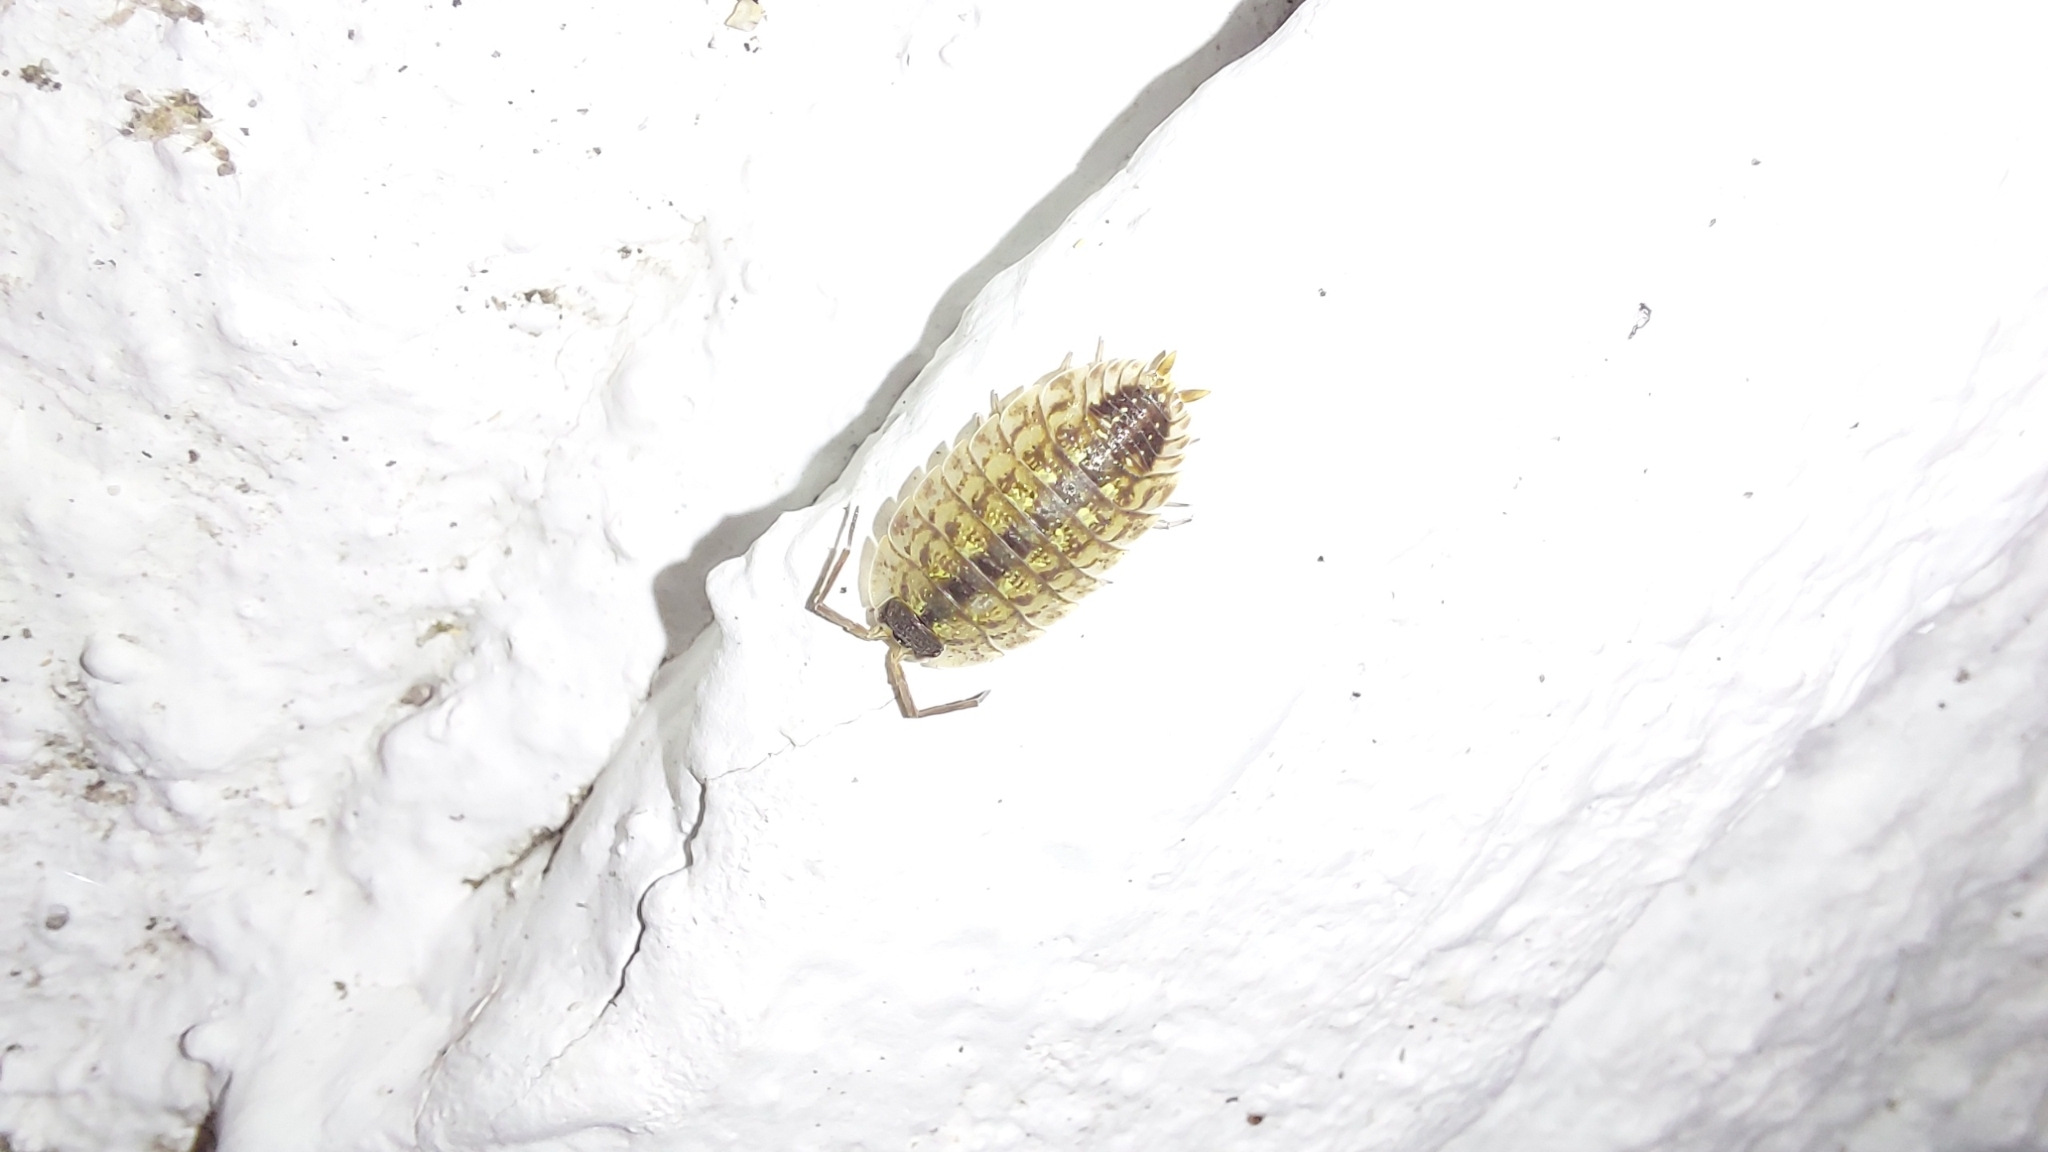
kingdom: Animalia
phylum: Arthropoda
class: Malacostraca
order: Isopoda
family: Porcellionidae
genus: Porcellio
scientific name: Porcellio spinicornis
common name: Painted woodlouse
